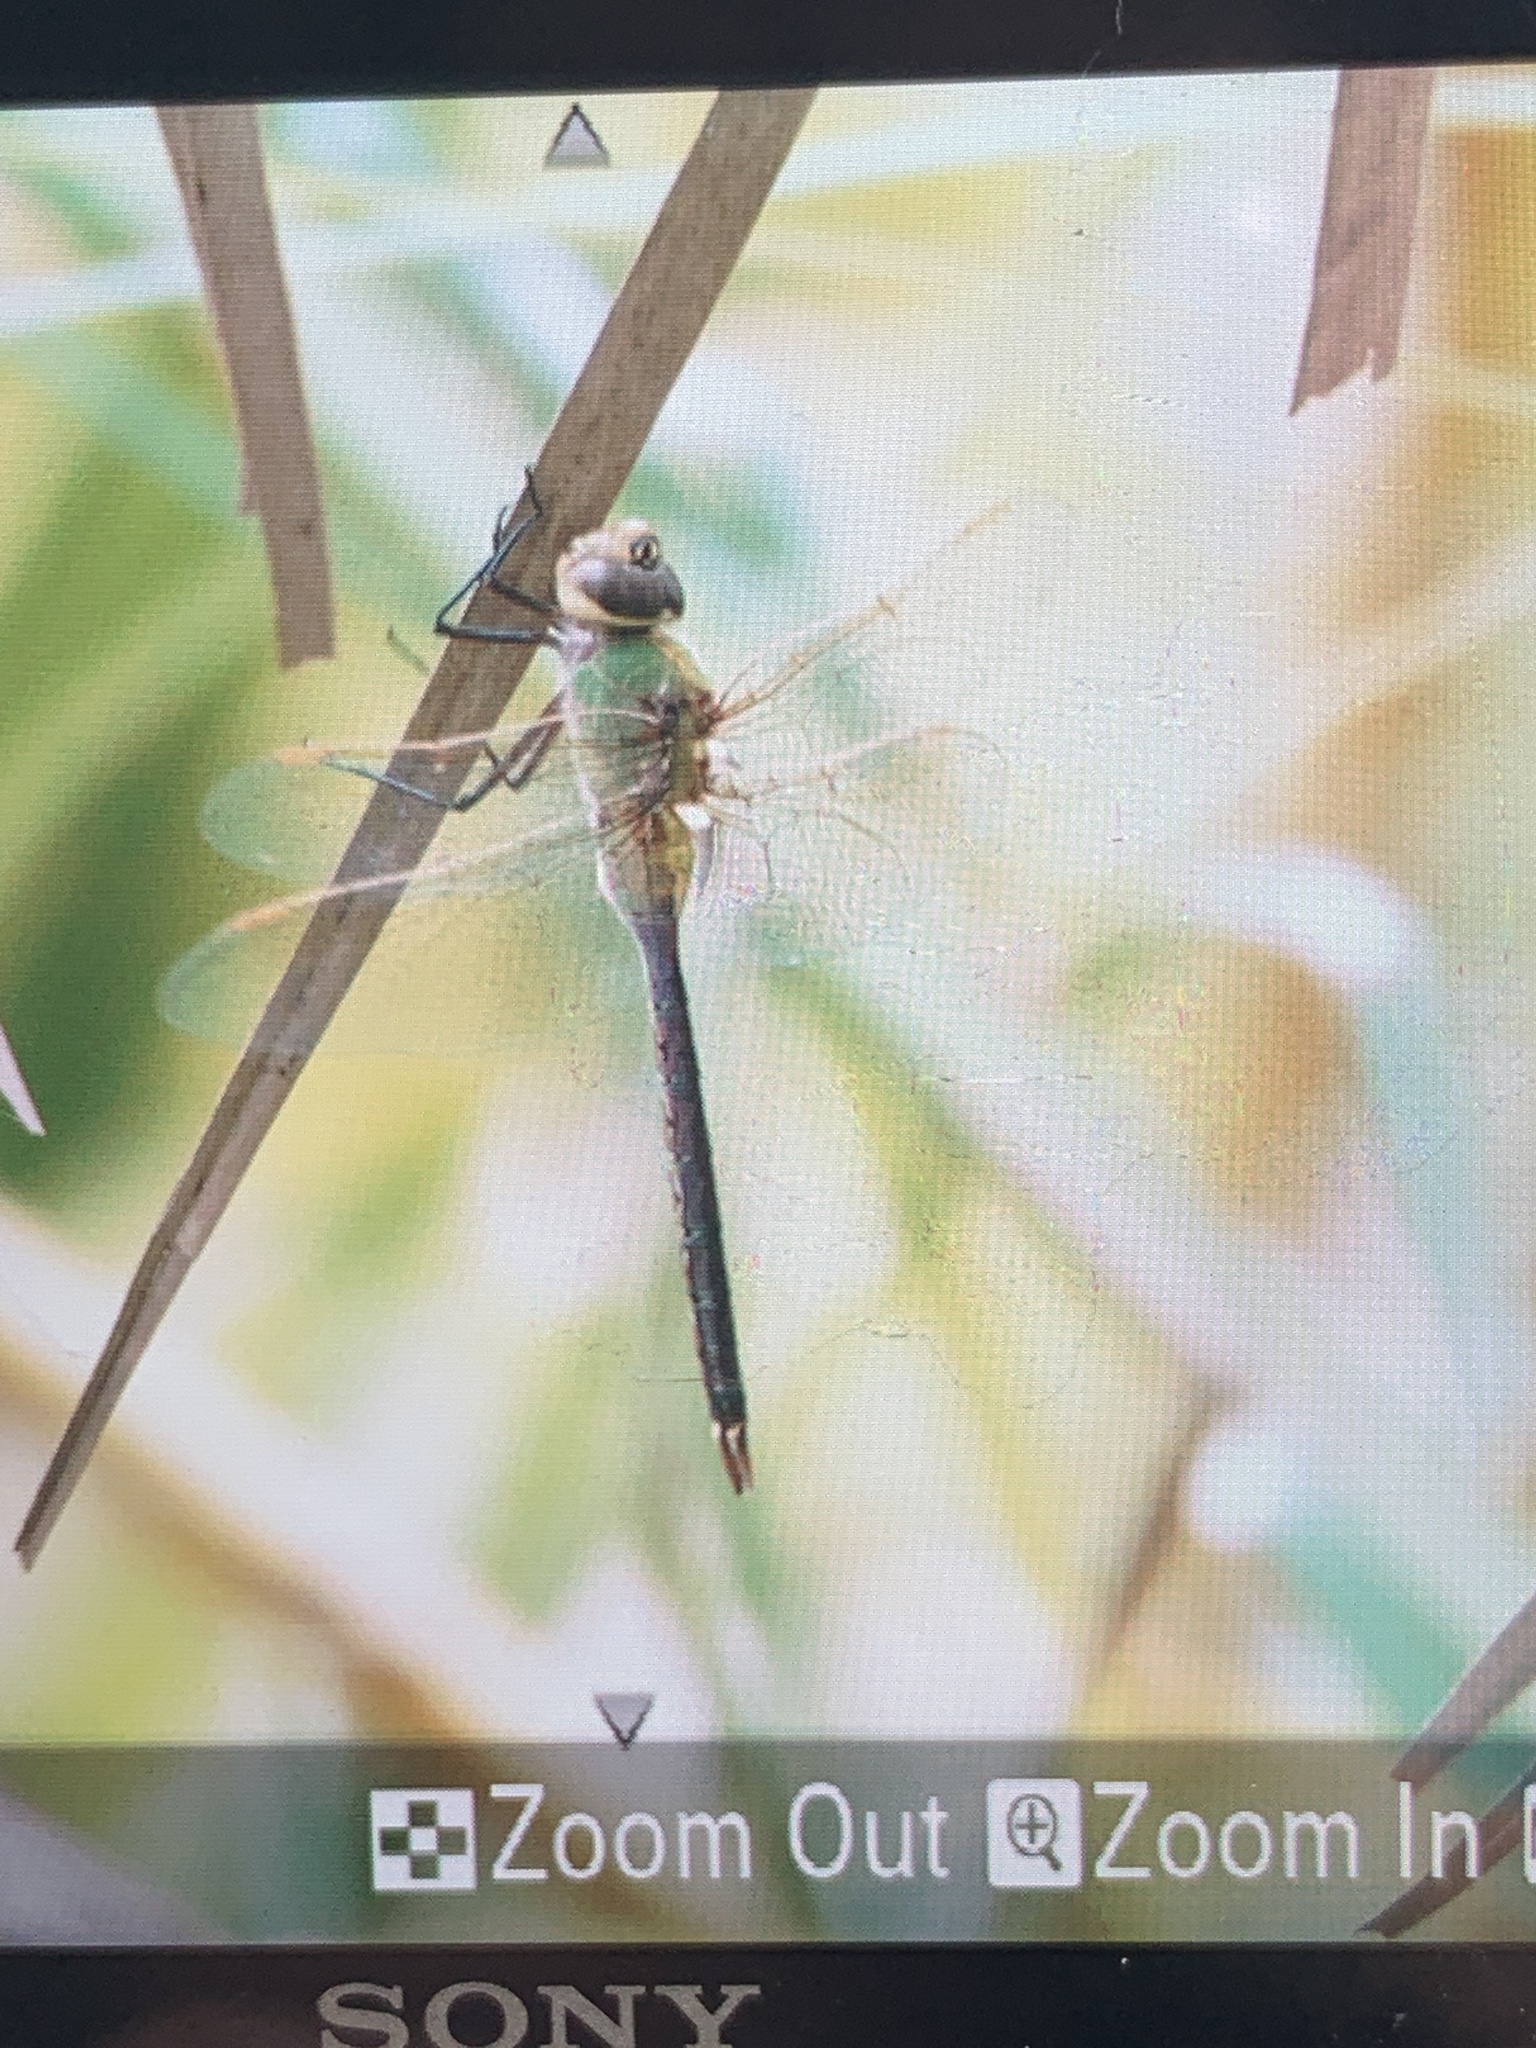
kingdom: Animalia
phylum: Arthropoda
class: Insecta
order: Odonata
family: Aeshnidae
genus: Anax
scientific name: Anax junius
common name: Common green darner
